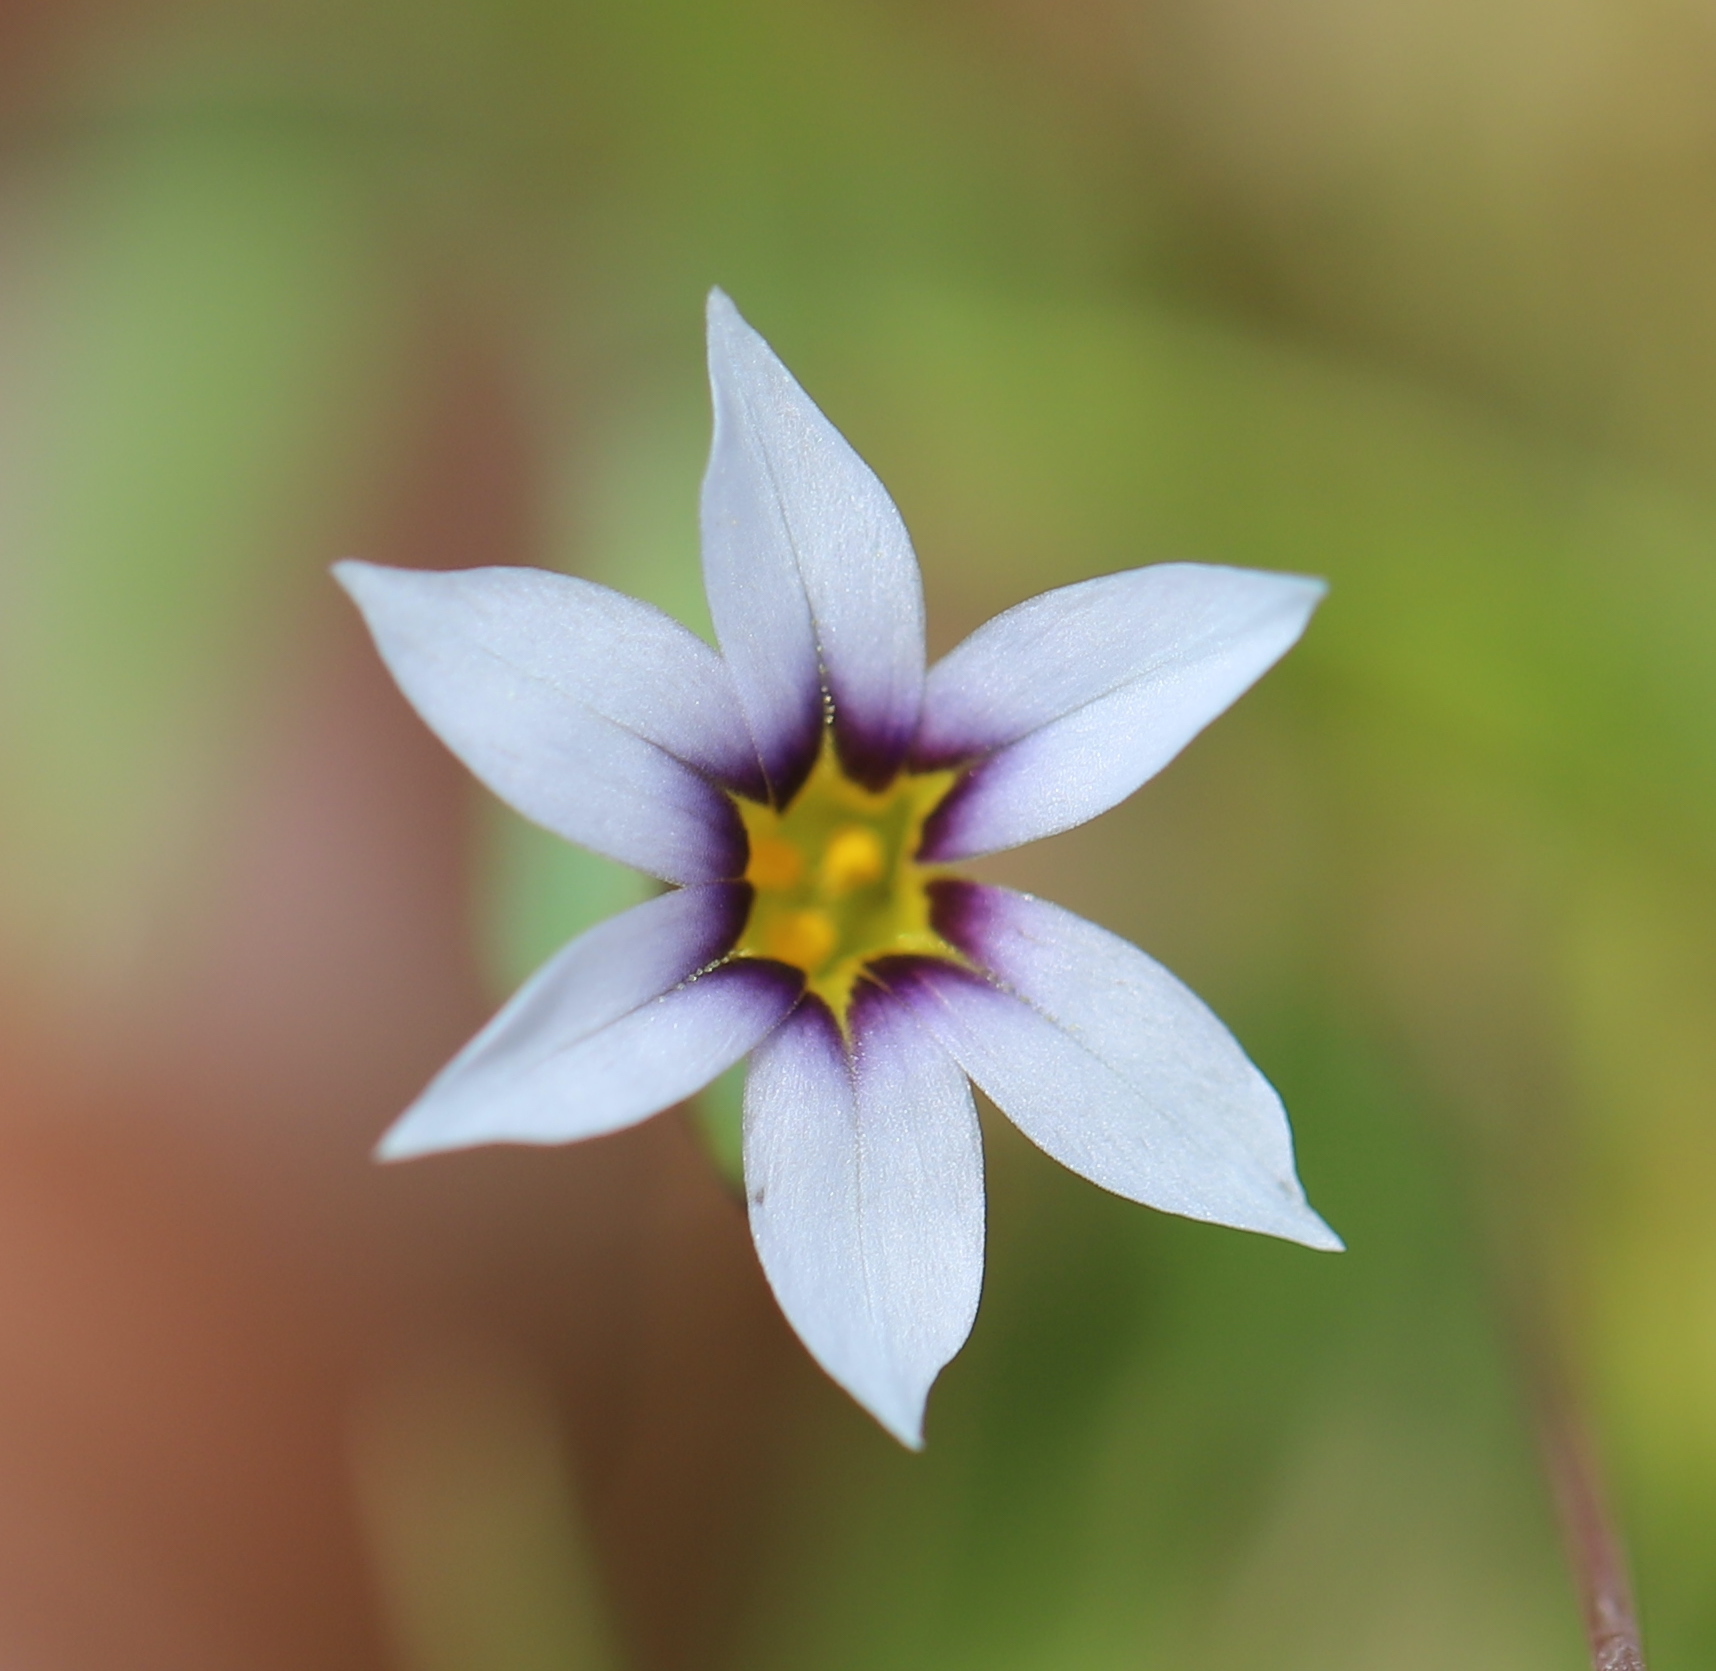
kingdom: Plantae
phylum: Tracheophyta
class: Liliopsida
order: Asparagales
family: Iridaceae
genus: Sisyrinchium
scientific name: Sisyrinchium micranthum
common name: Bermuda pigroot
